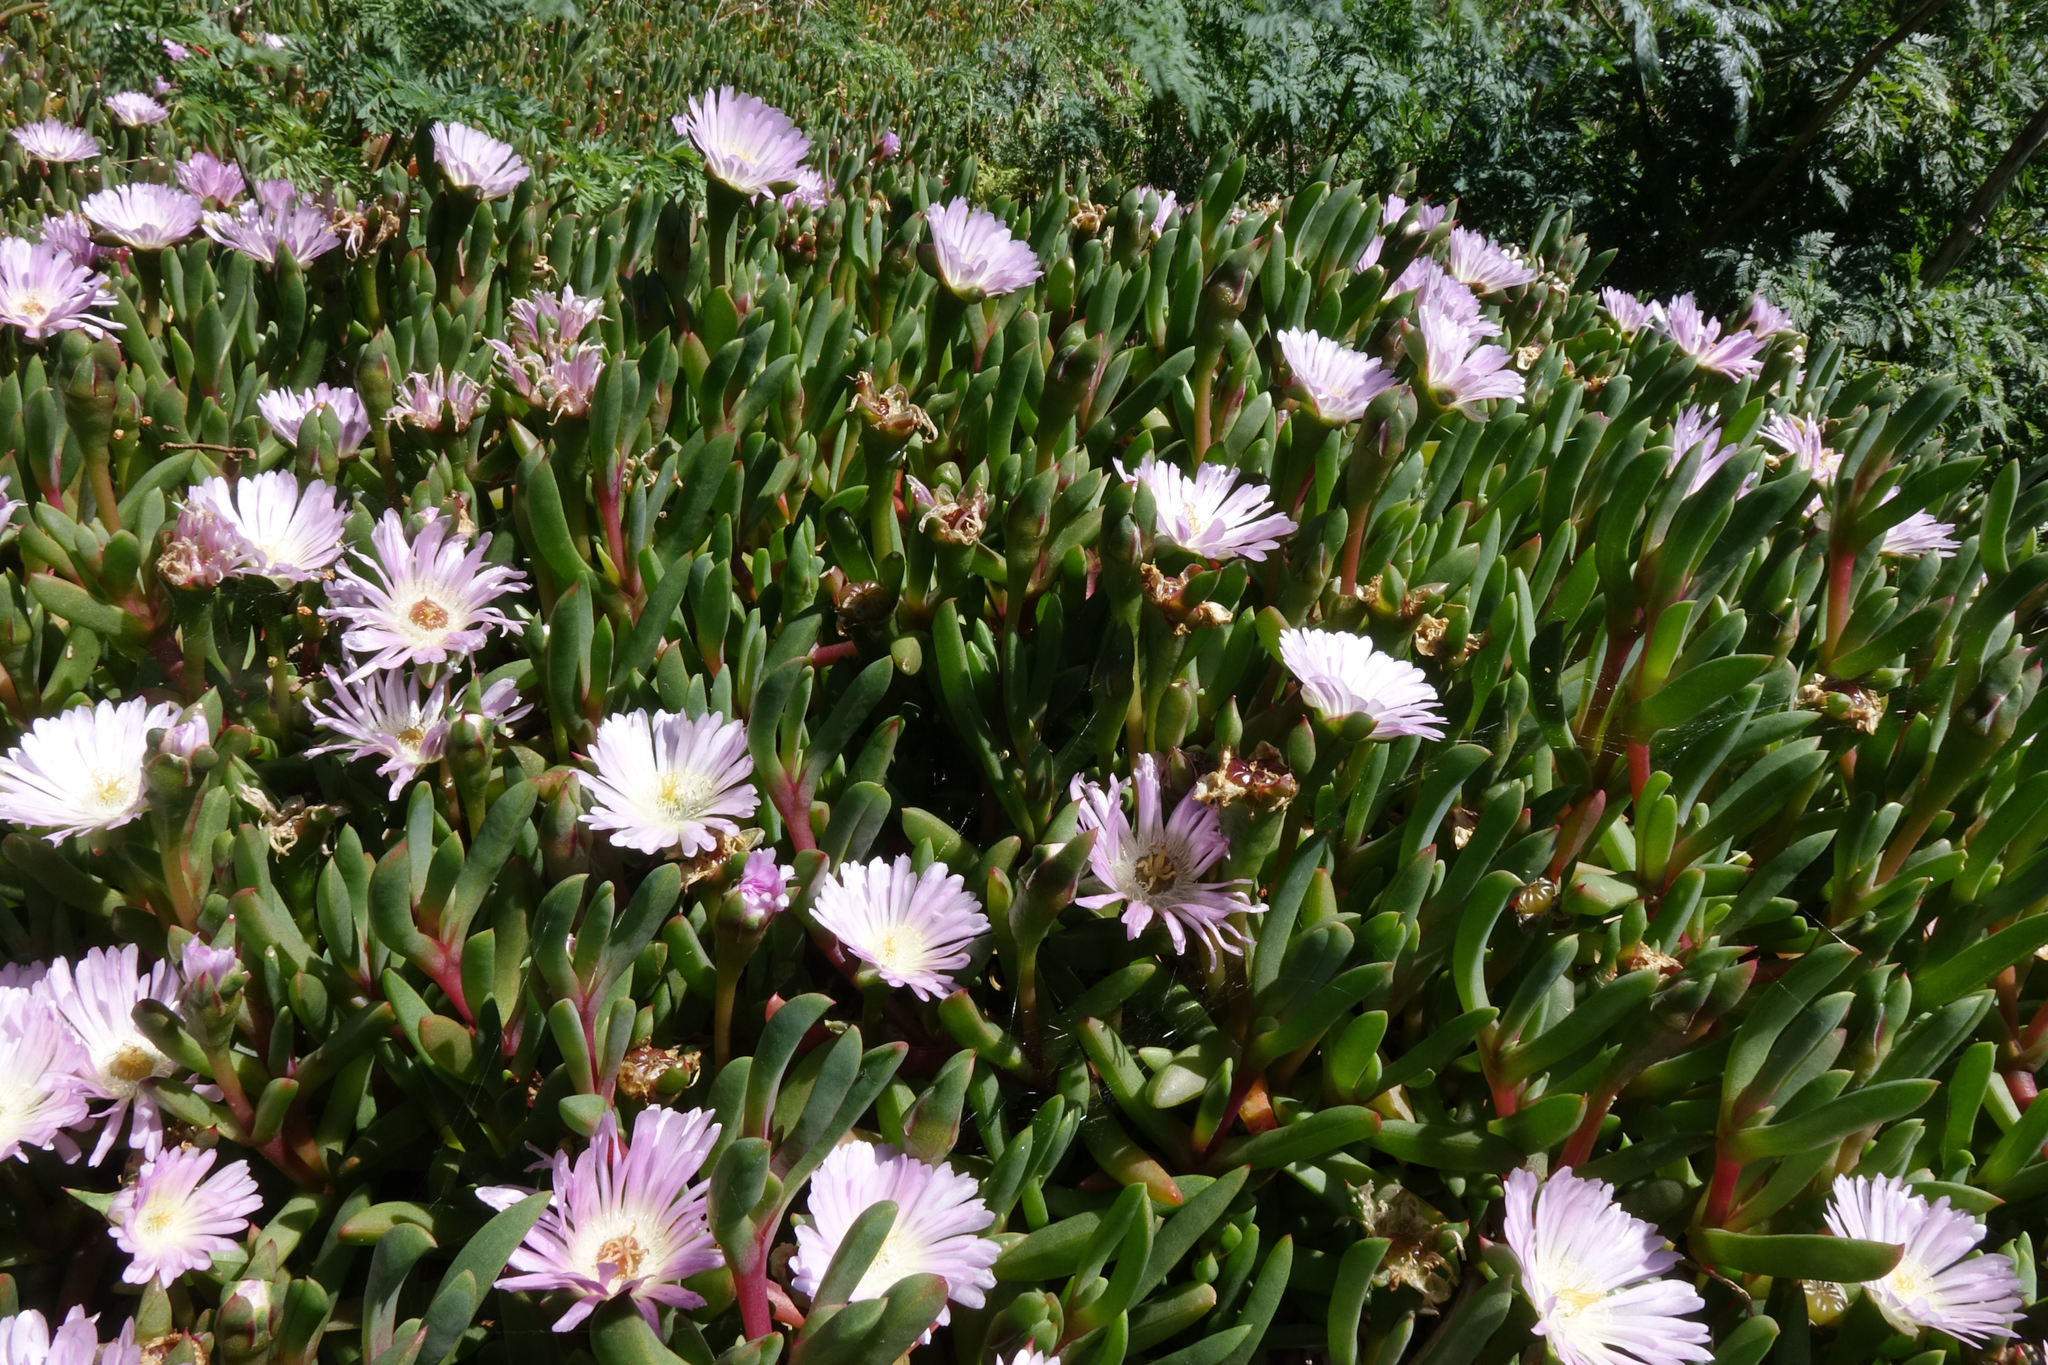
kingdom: Plantae
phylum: Tracheophyta
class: Magnoliopsida
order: Caryophyllales
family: Aizoaceae
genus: Disphyma
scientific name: Disphyma australe
